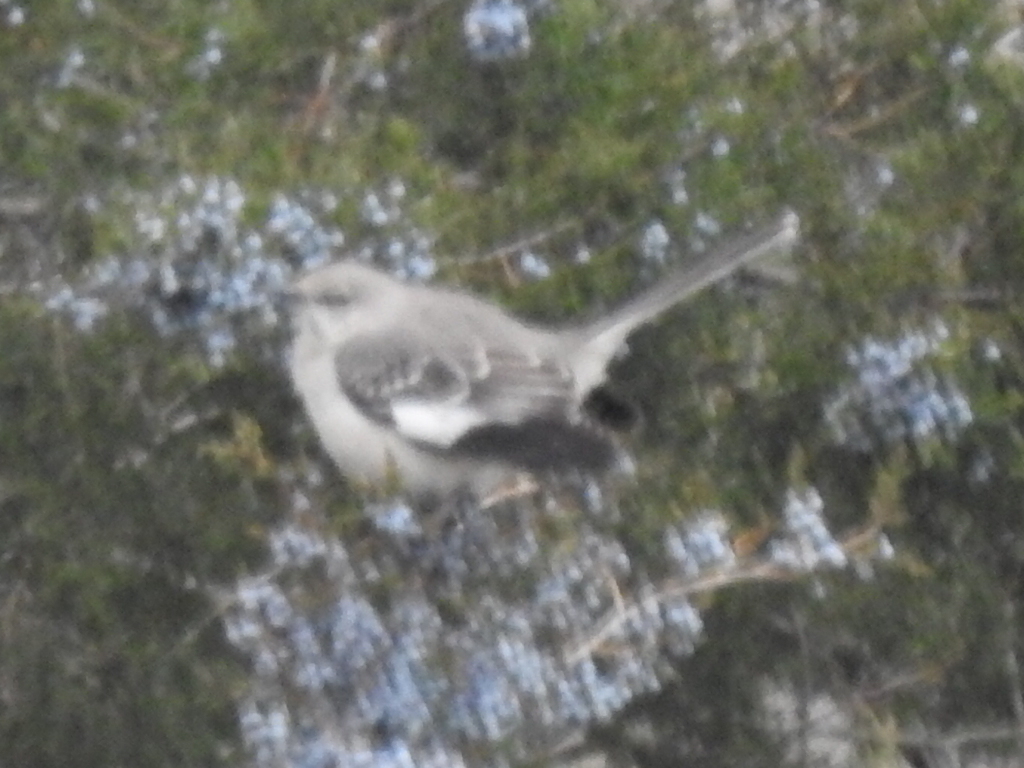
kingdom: Animalia
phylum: Chordata
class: Aves
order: Passeriformes
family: Mimidae
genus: Mimus
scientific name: Mimus polyglottos
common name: Northern mockingbird
